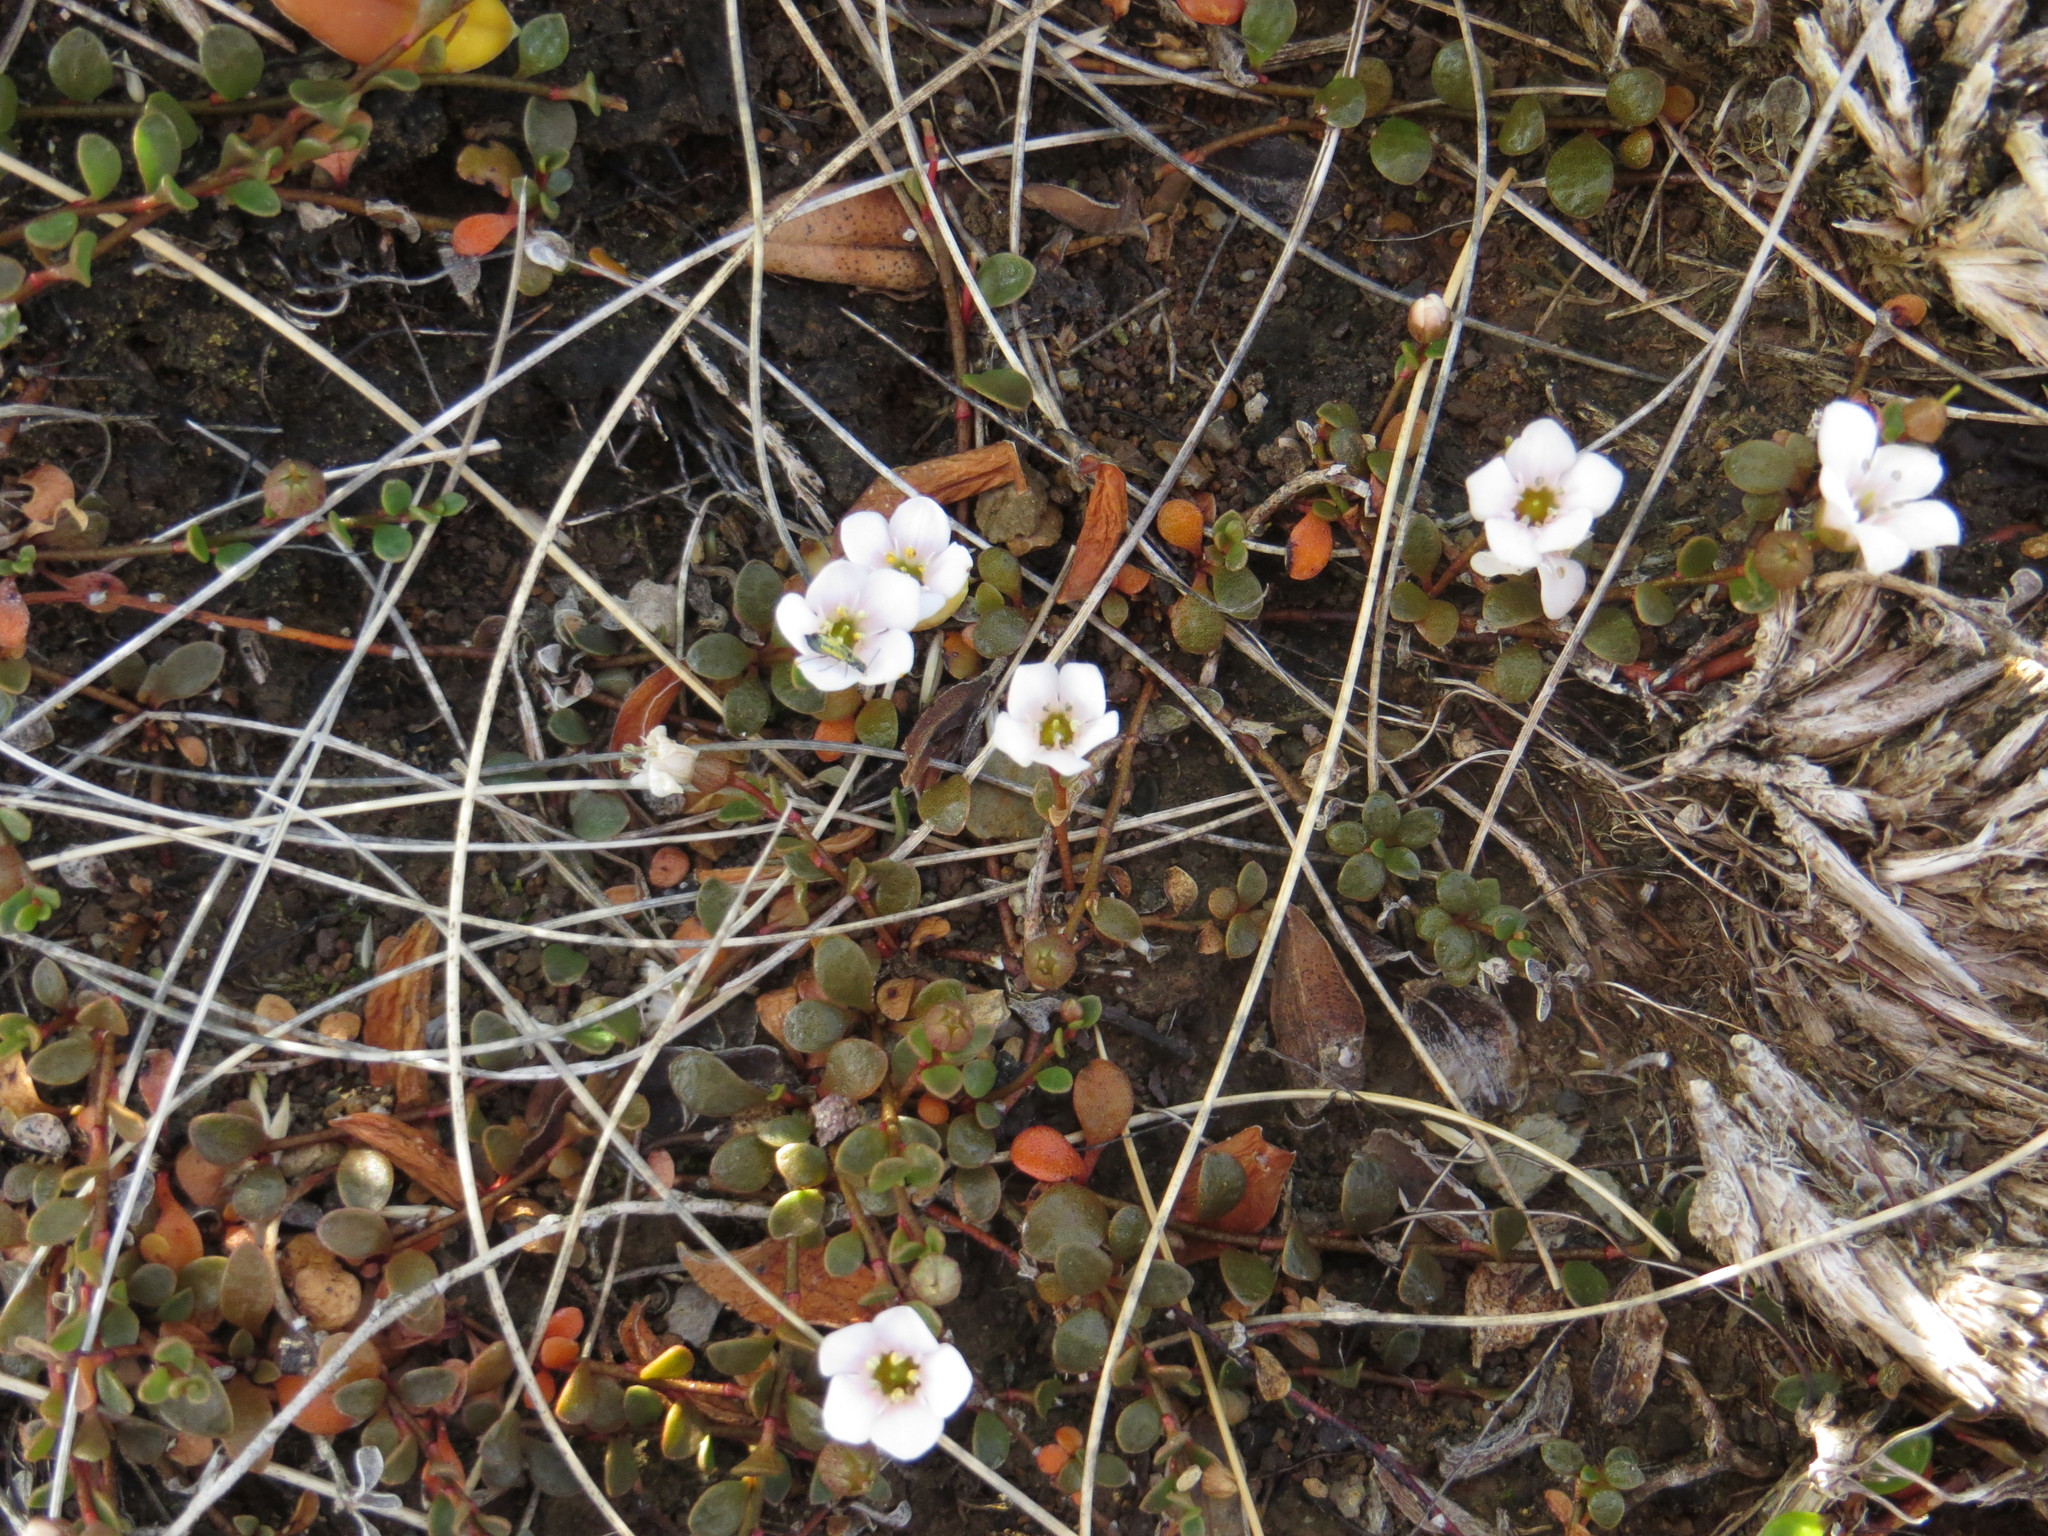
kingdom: Plantae
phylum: Tracheophyta
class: Magnoliopsida
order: Ericales
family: Primulaceae
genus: Samolus
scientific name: Samolus repens
